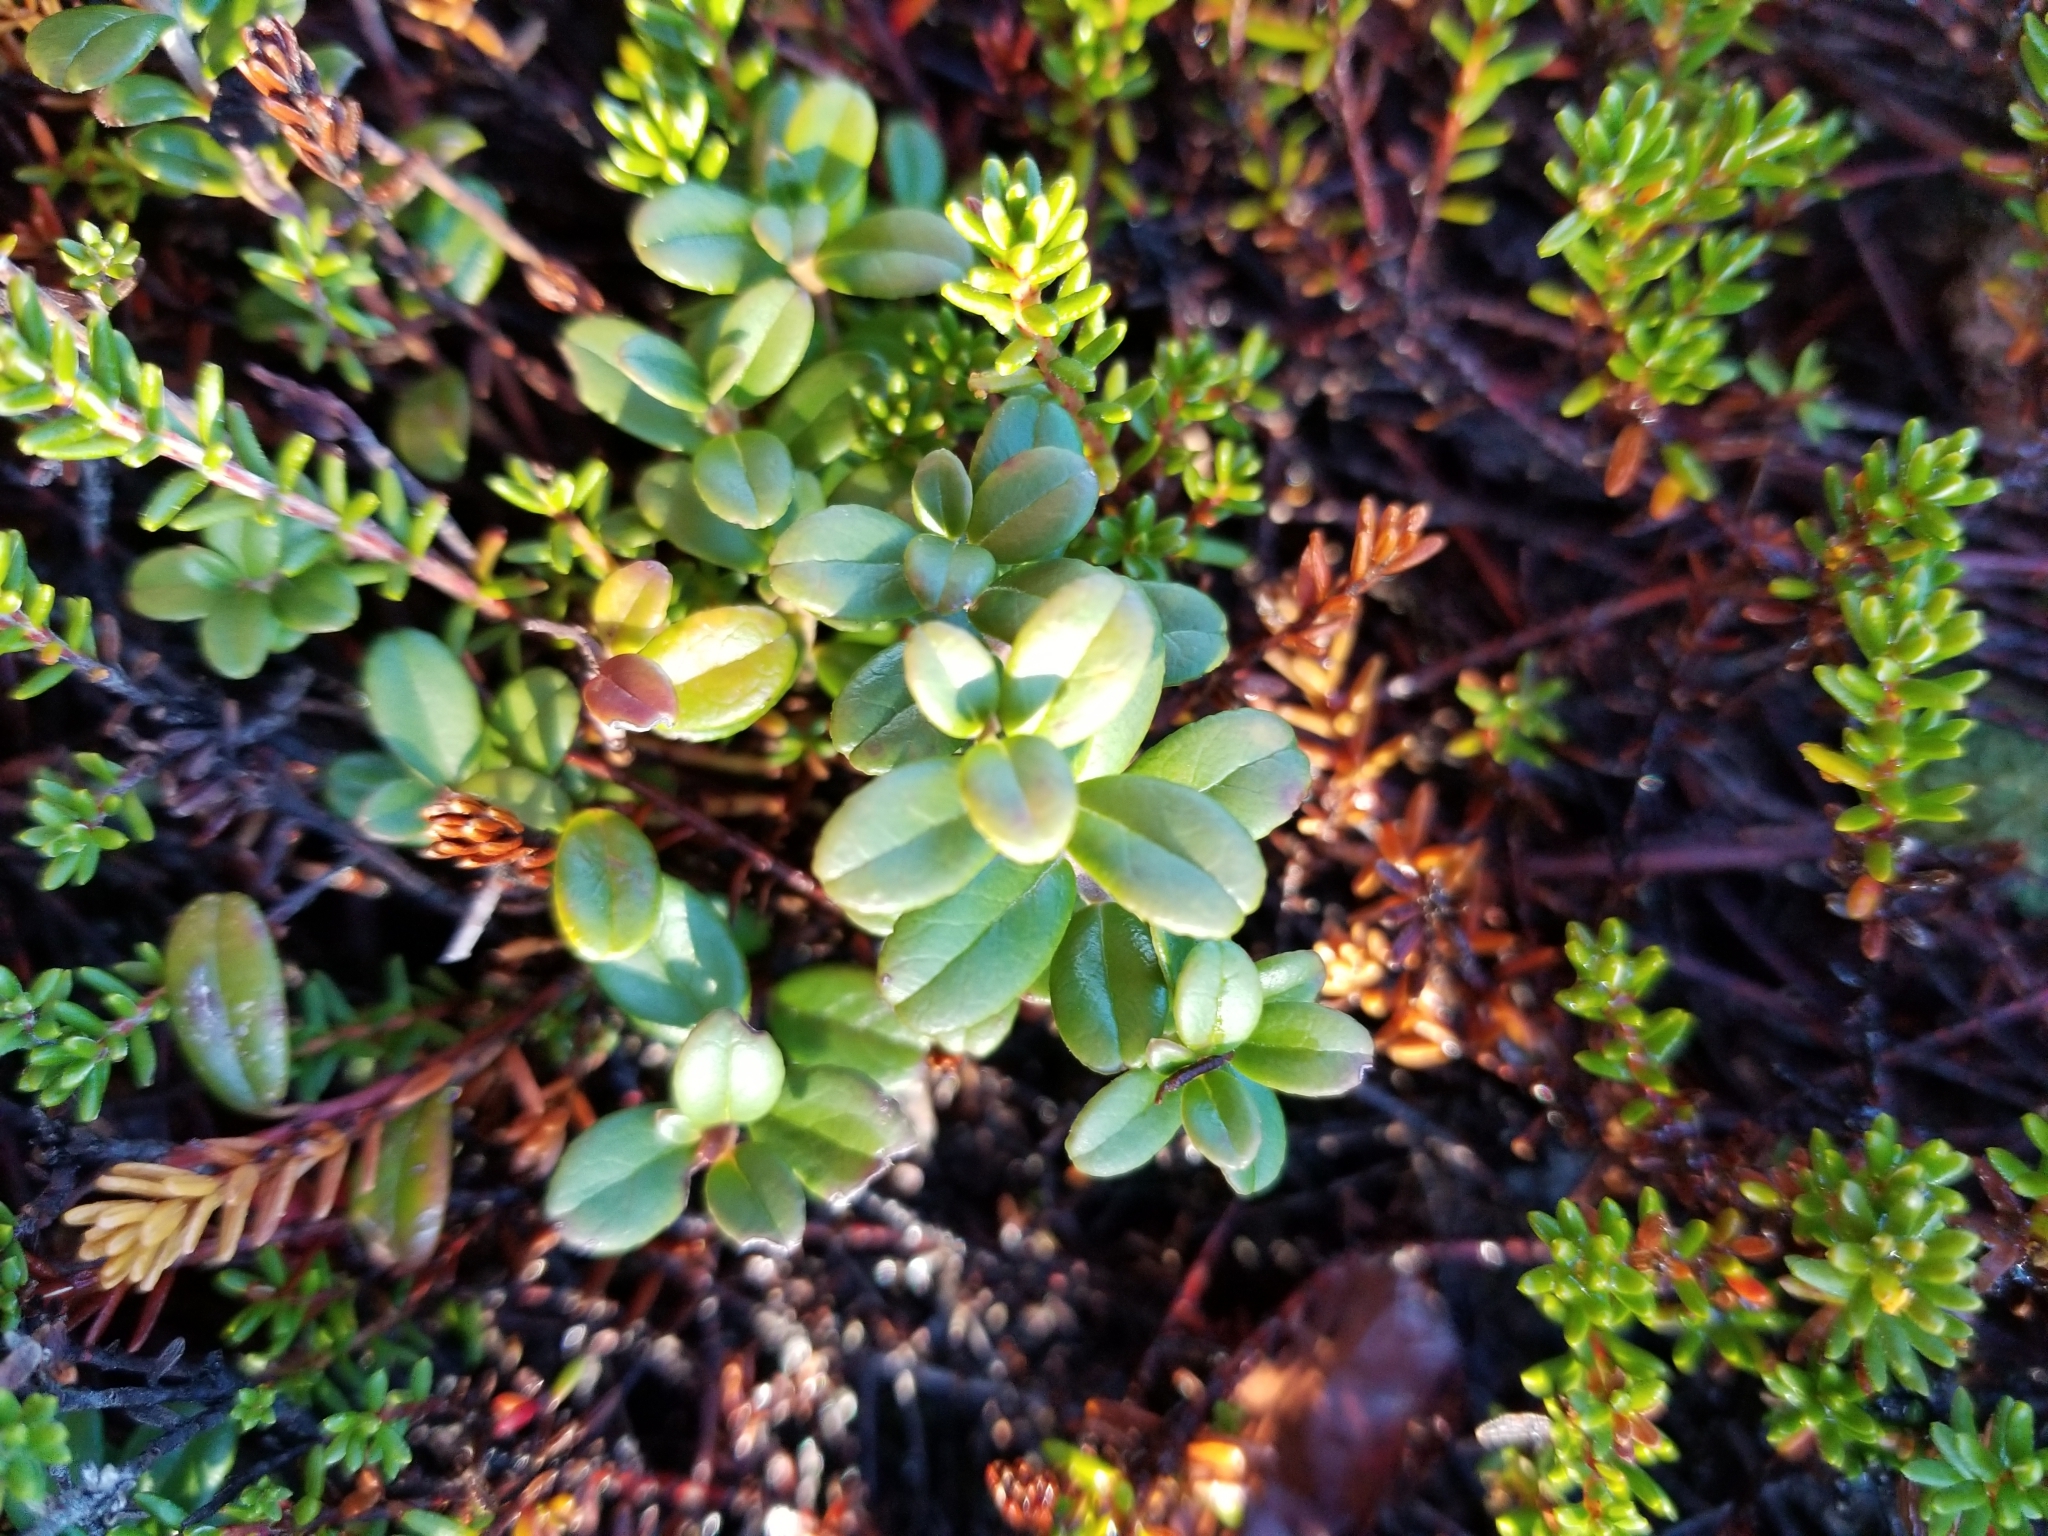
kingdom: Plantae
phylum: Tracheophyta
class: Magnoliopsida
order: Ericales
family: Ericaceae
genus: Vaccinium
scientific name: Vaccinium vitis-idaea
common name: Cowberry
